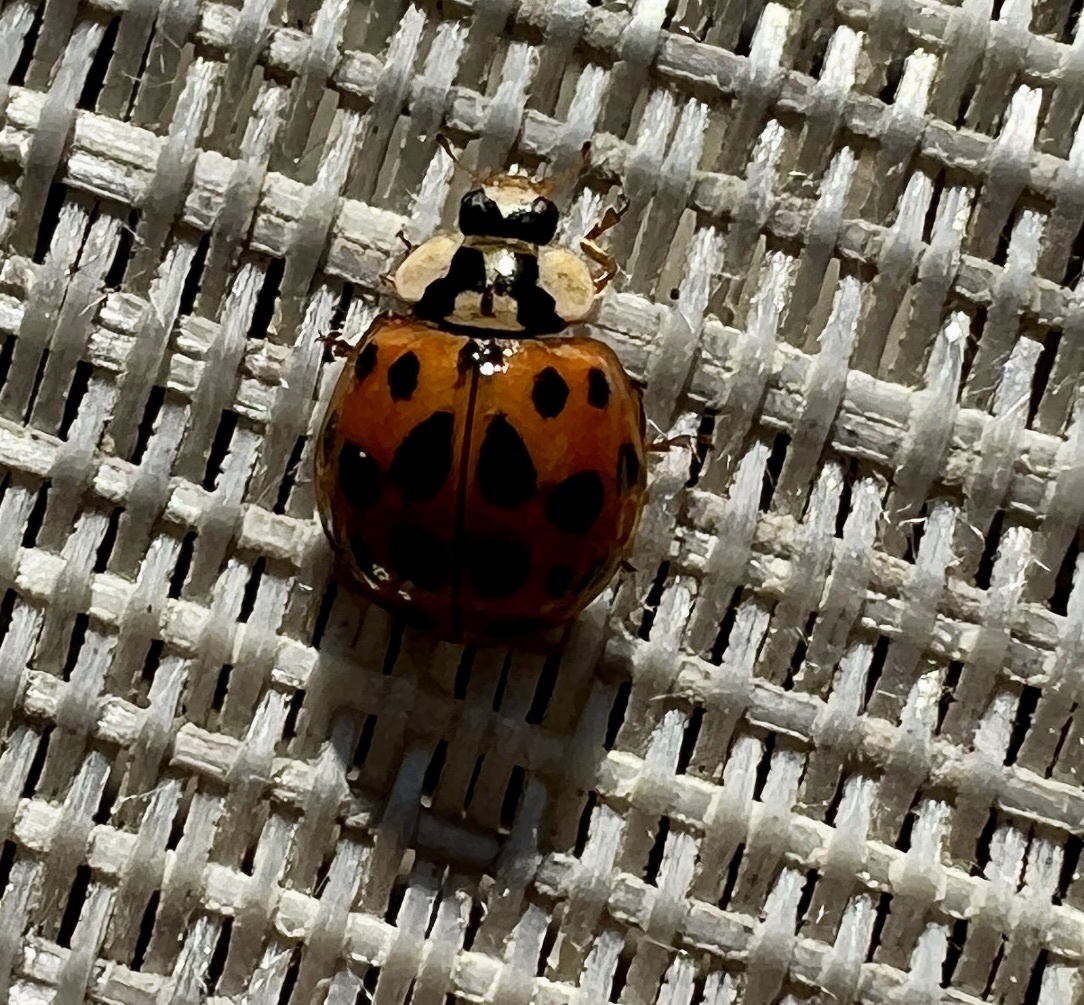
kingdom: Animalia
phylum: Arthropoda
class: Insecta
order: Coleoptera
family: Coccinellidae
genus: Harmonia
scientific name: Harmonia axyridis
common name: Harlequin ladybird
